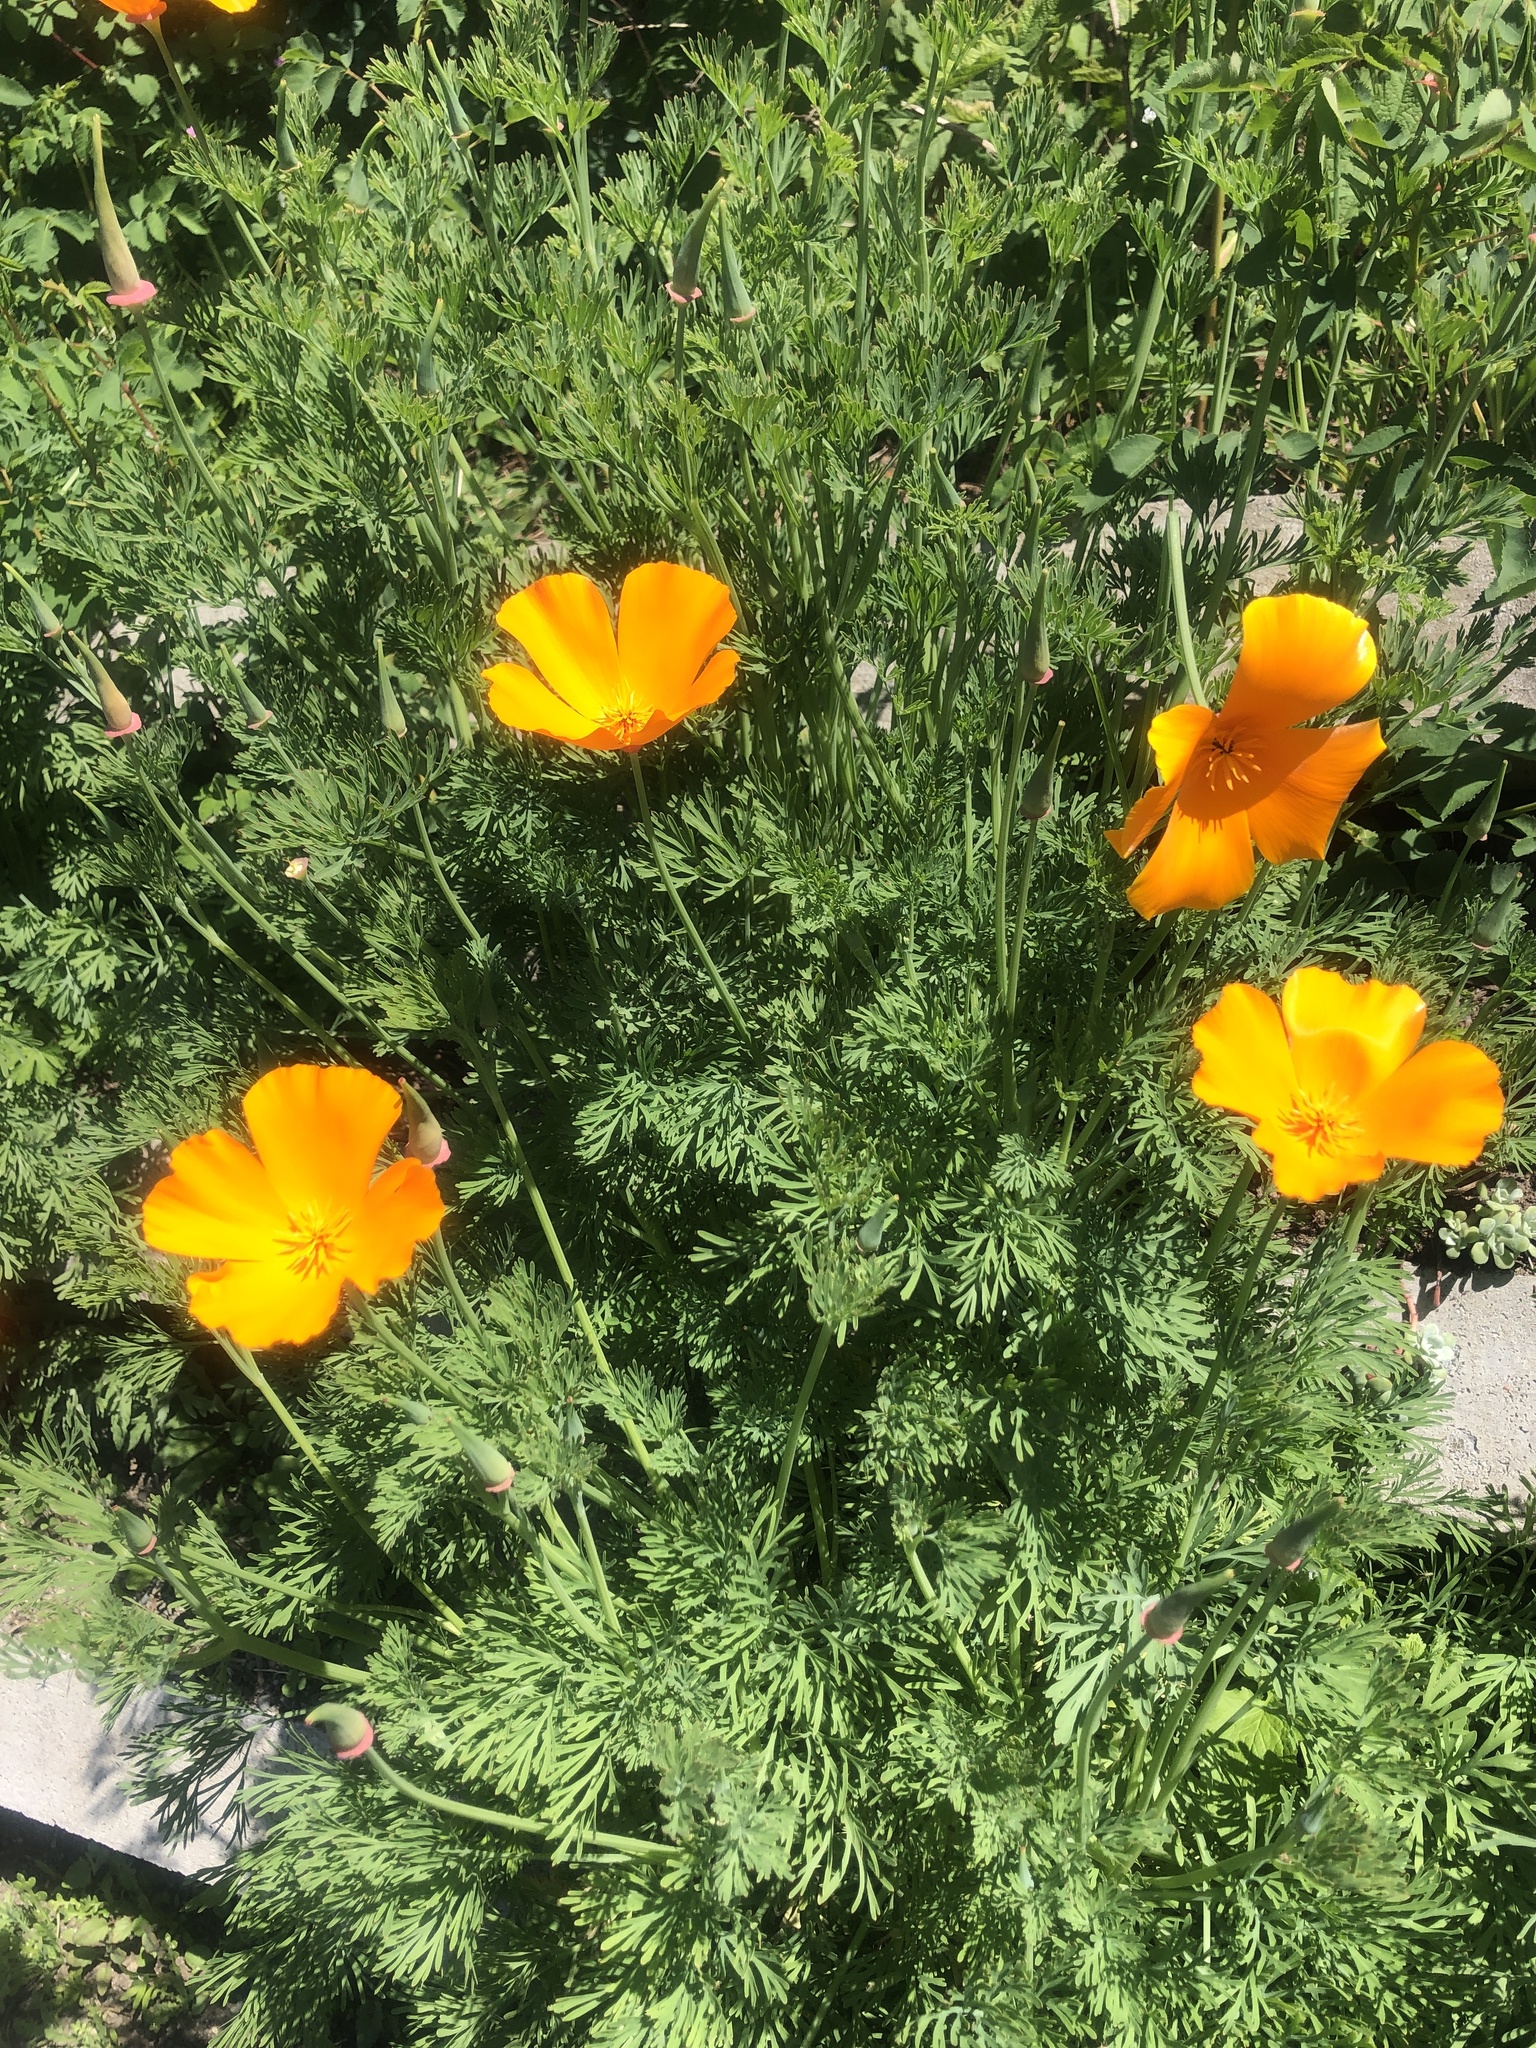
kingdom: Plantae
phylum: Tracheophyta
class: Magnoliopsida
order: Ranunculales
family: Papaveraceae
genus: Eschscholzia
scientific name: Eschscholzia californica
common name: California poppy
